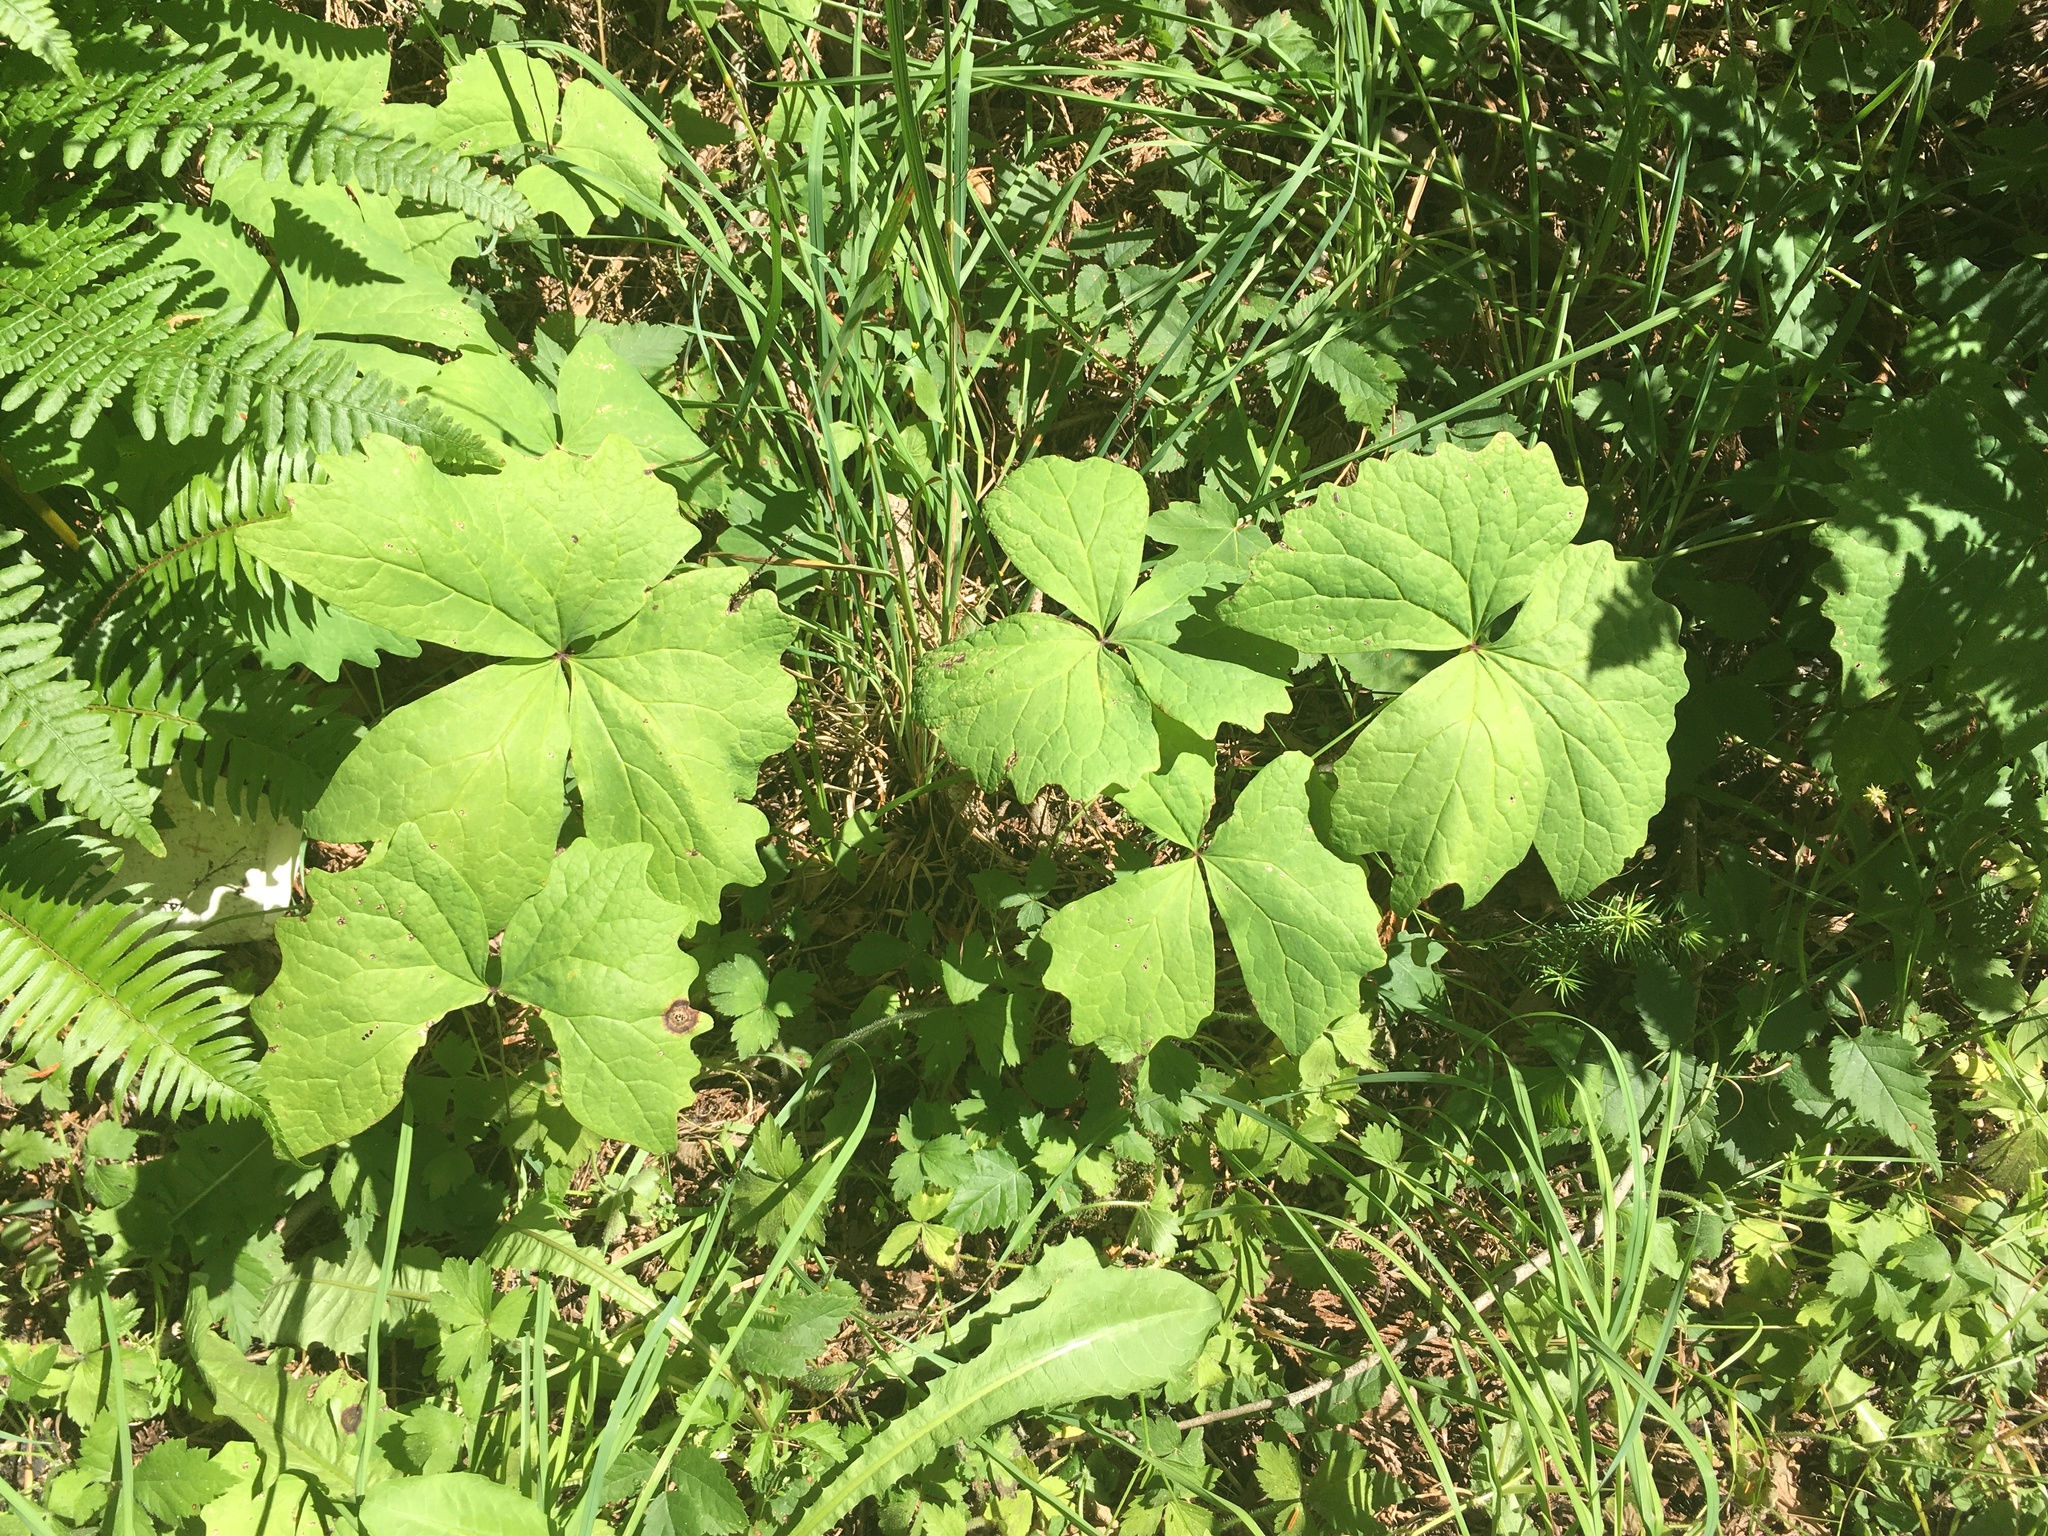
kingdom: Plantae
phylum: Tracheophyta
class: Magnoliopsida
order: Ranunculales
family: Berberidaceae
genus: Achlys
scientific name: Achlys triphylla
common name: Vanilla-leaf
